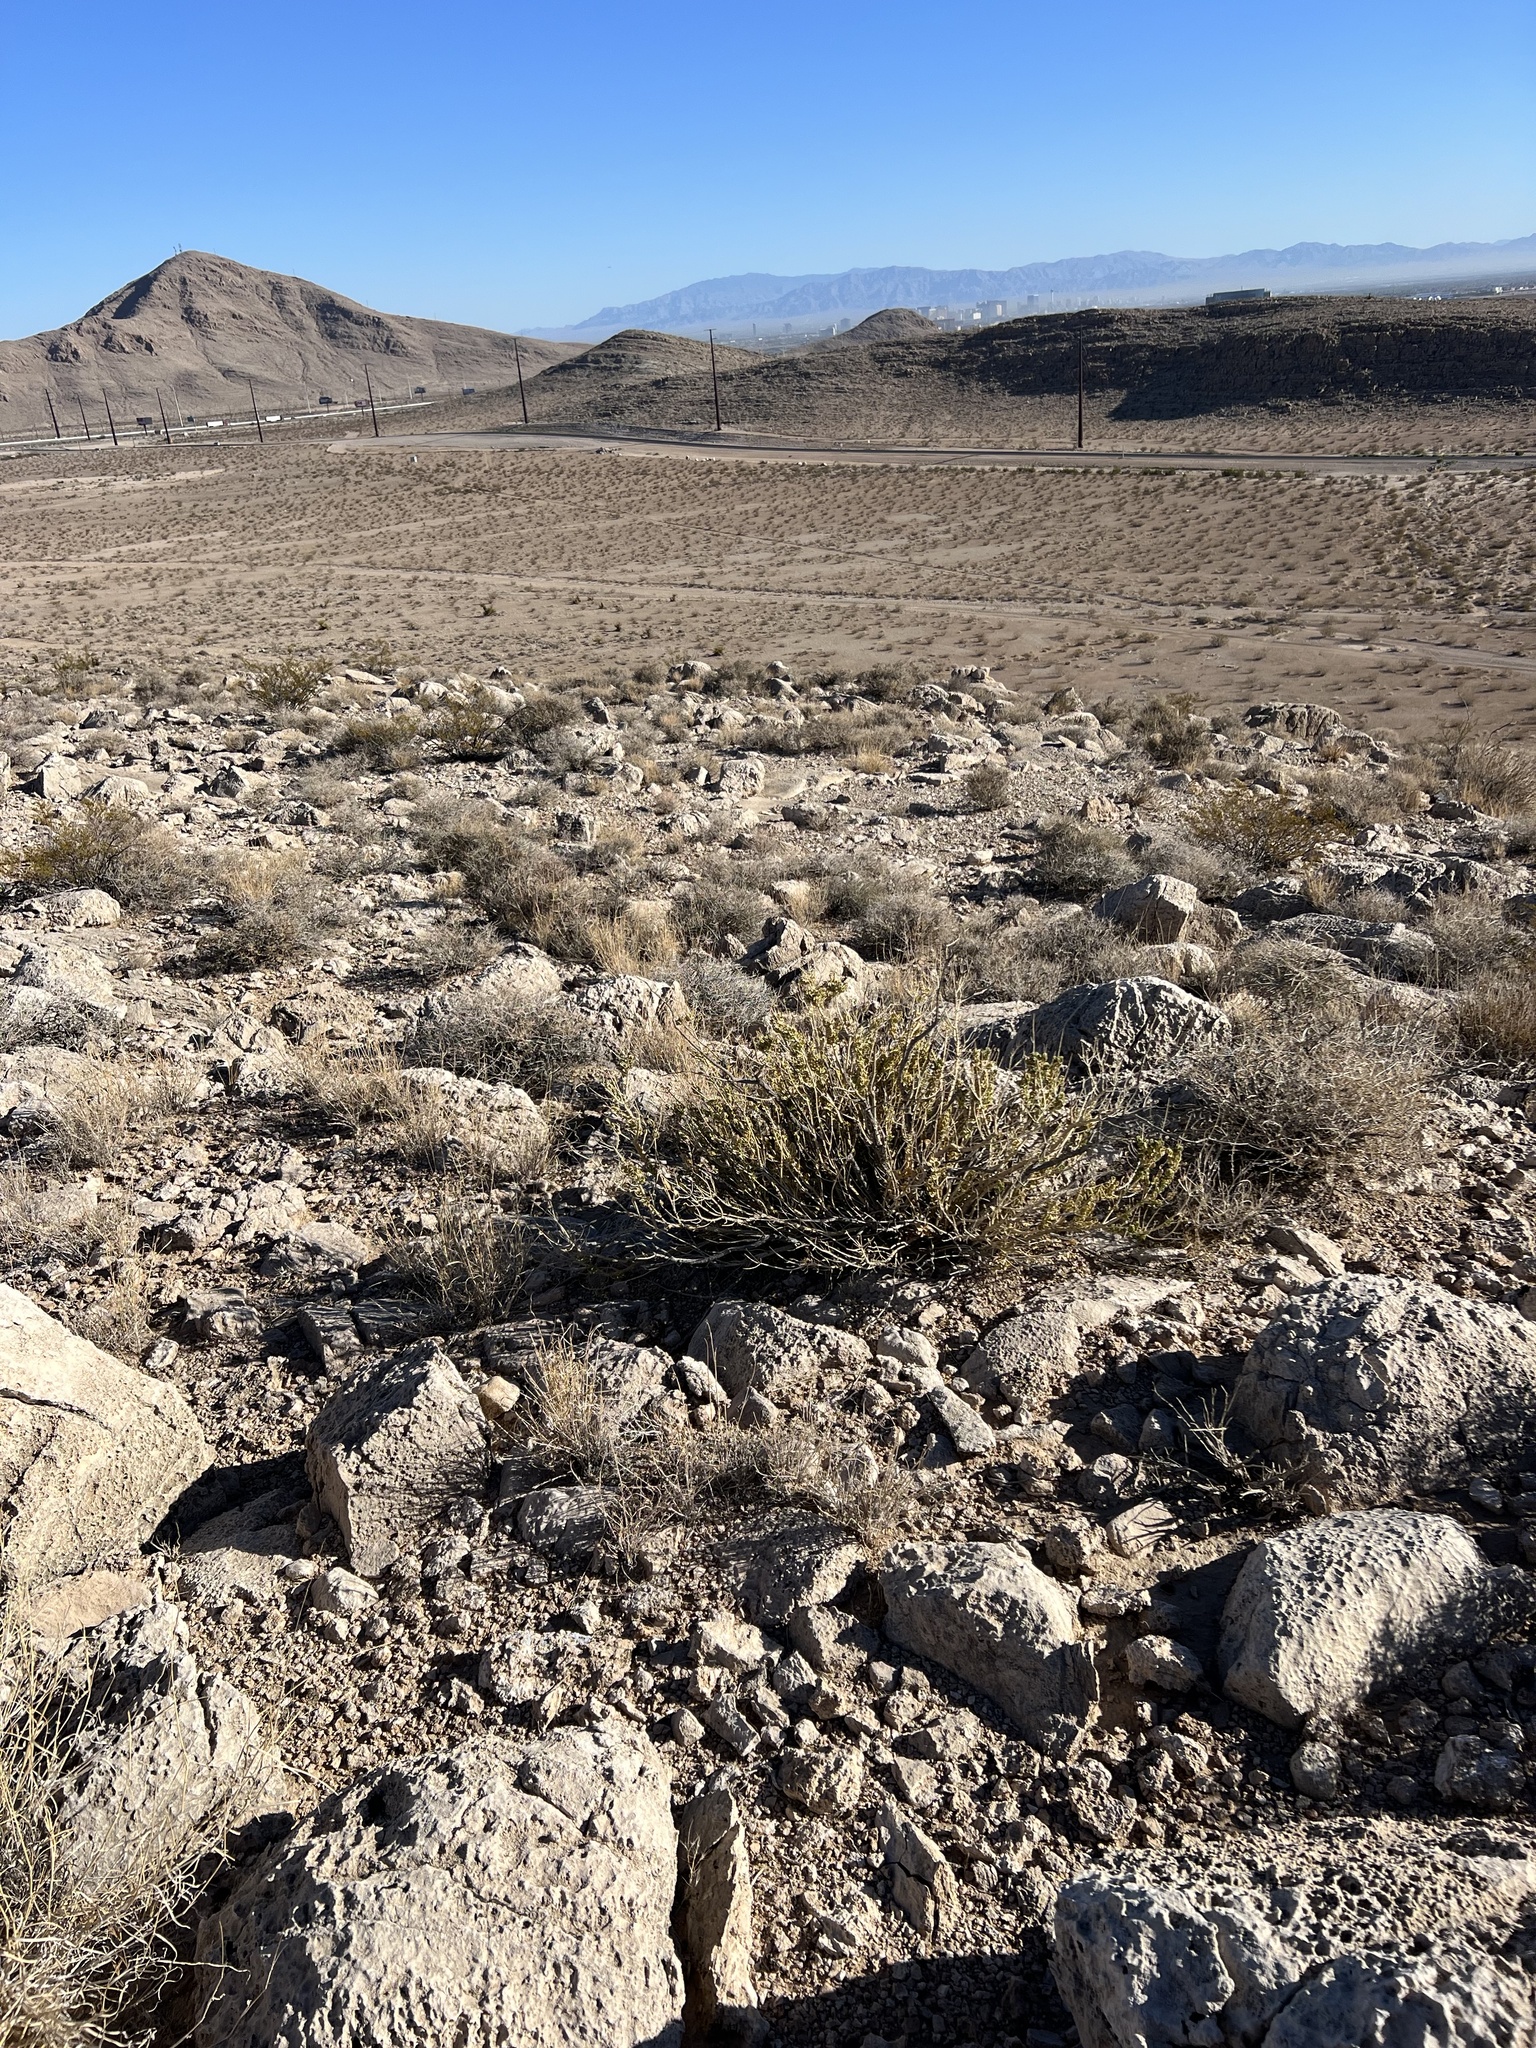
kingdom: Plantae
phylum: Tracheophyta
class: Magnoliopsida
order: Celastrales
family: Celastraceae
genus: Mortonia
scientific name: Mortonia utahensis
